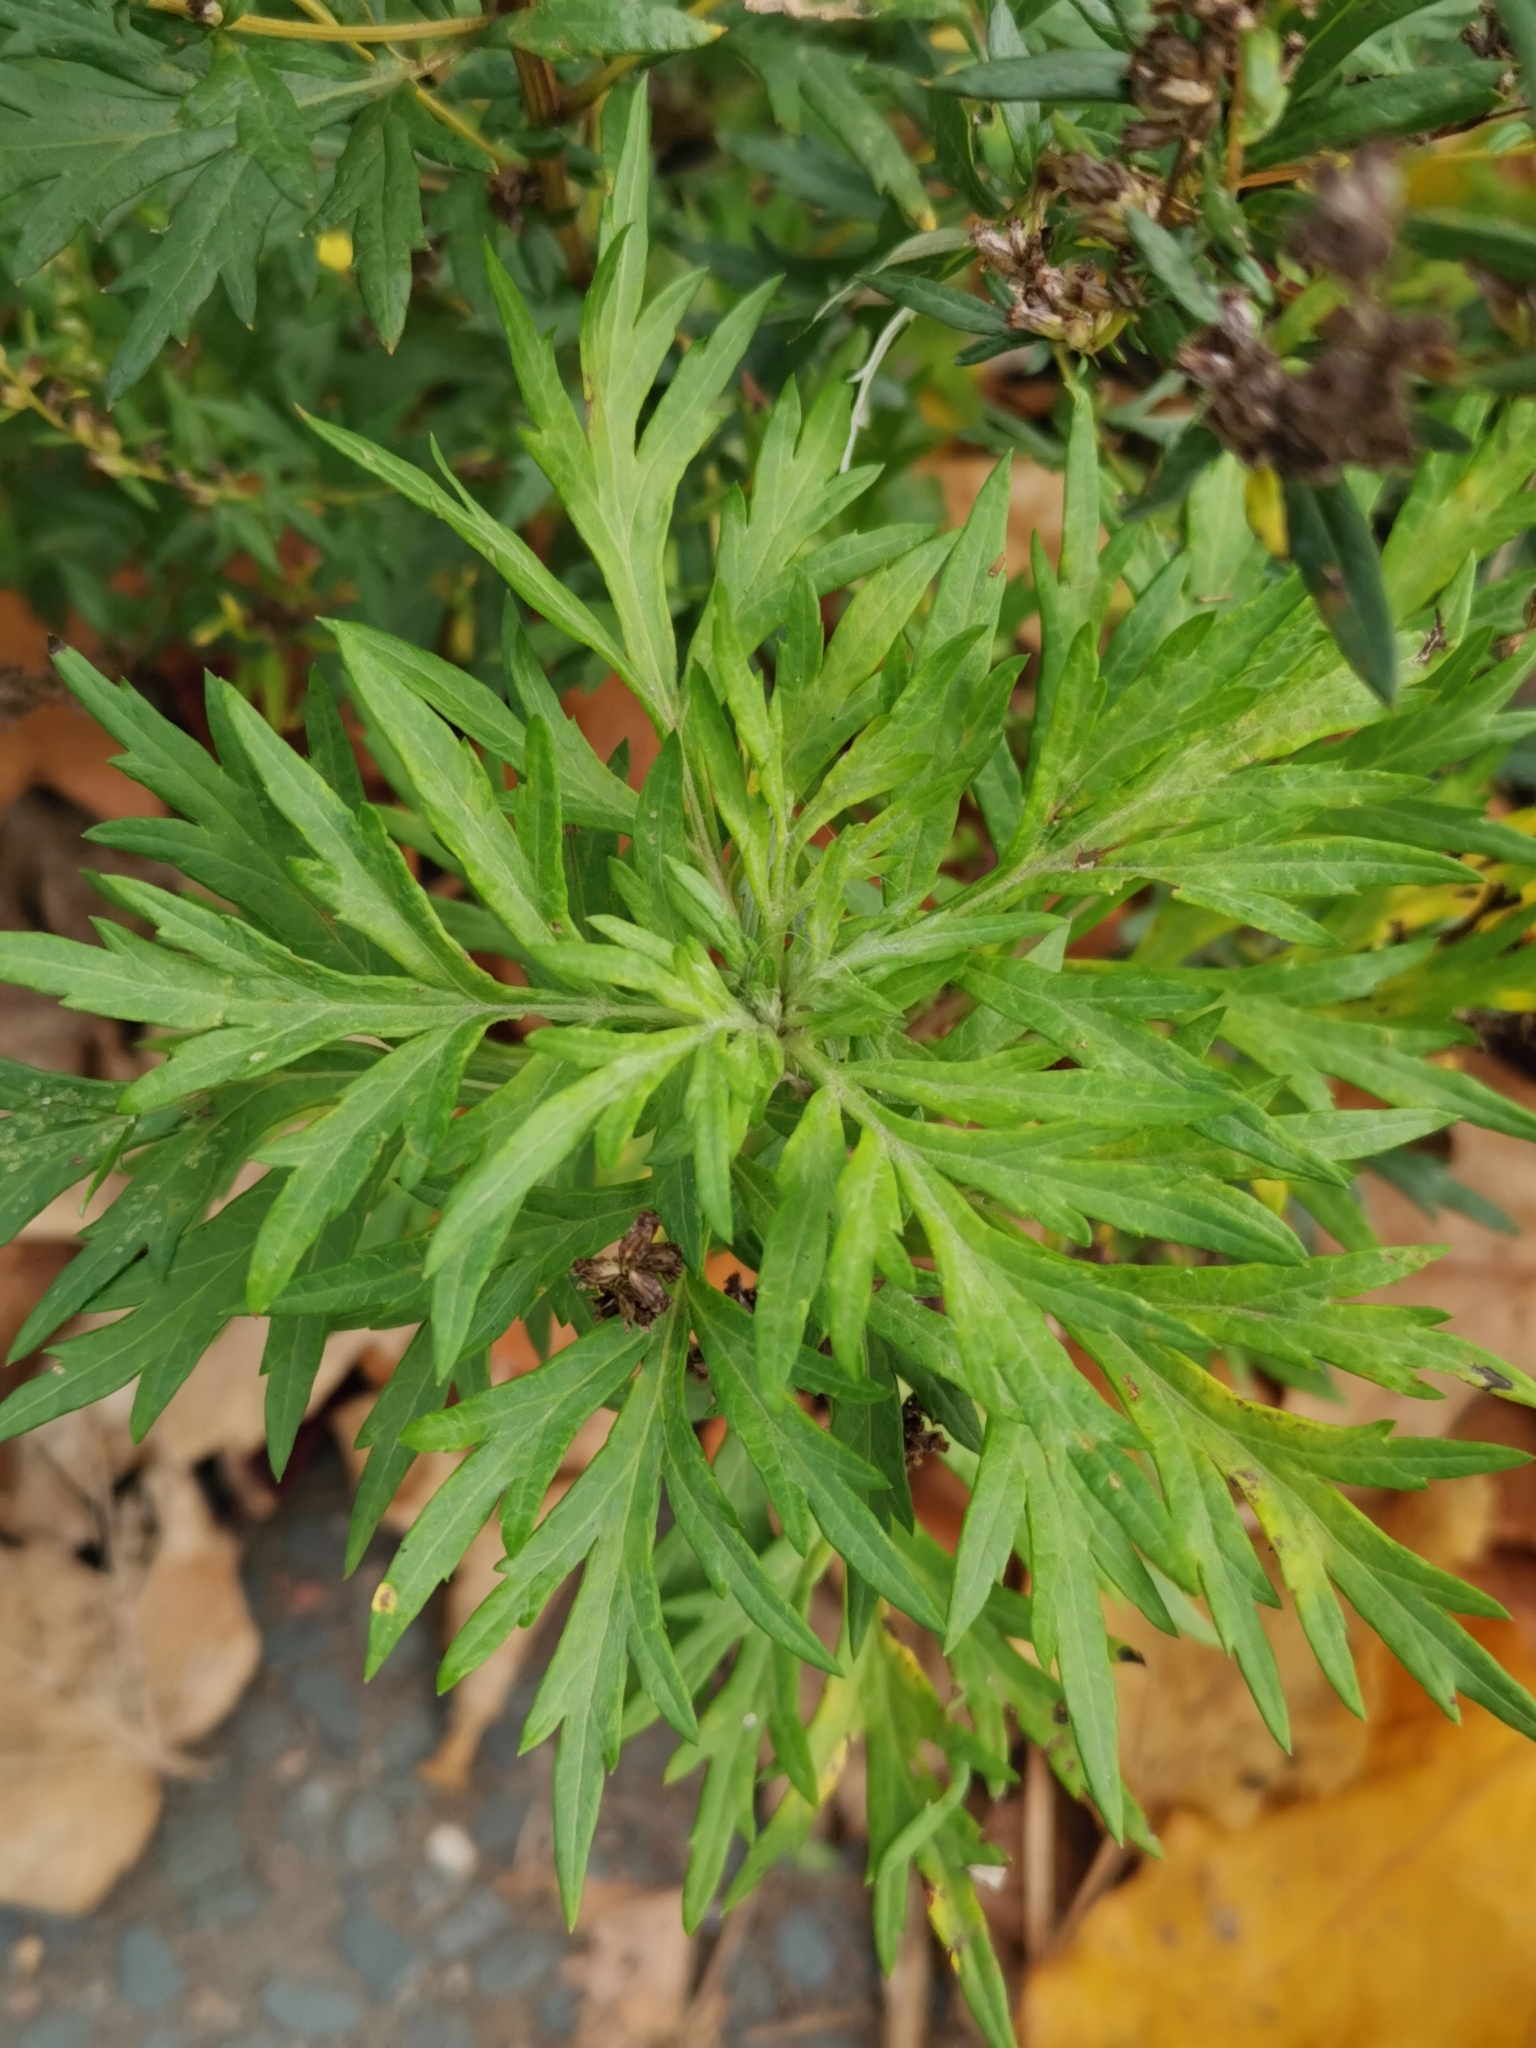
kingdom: Plantae
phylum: Tracheophyta
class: Magnoliopsida
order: Asterales
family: Asteraceae
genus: Artemisia
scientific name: Artemisia vulgaris
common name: Mugwort
